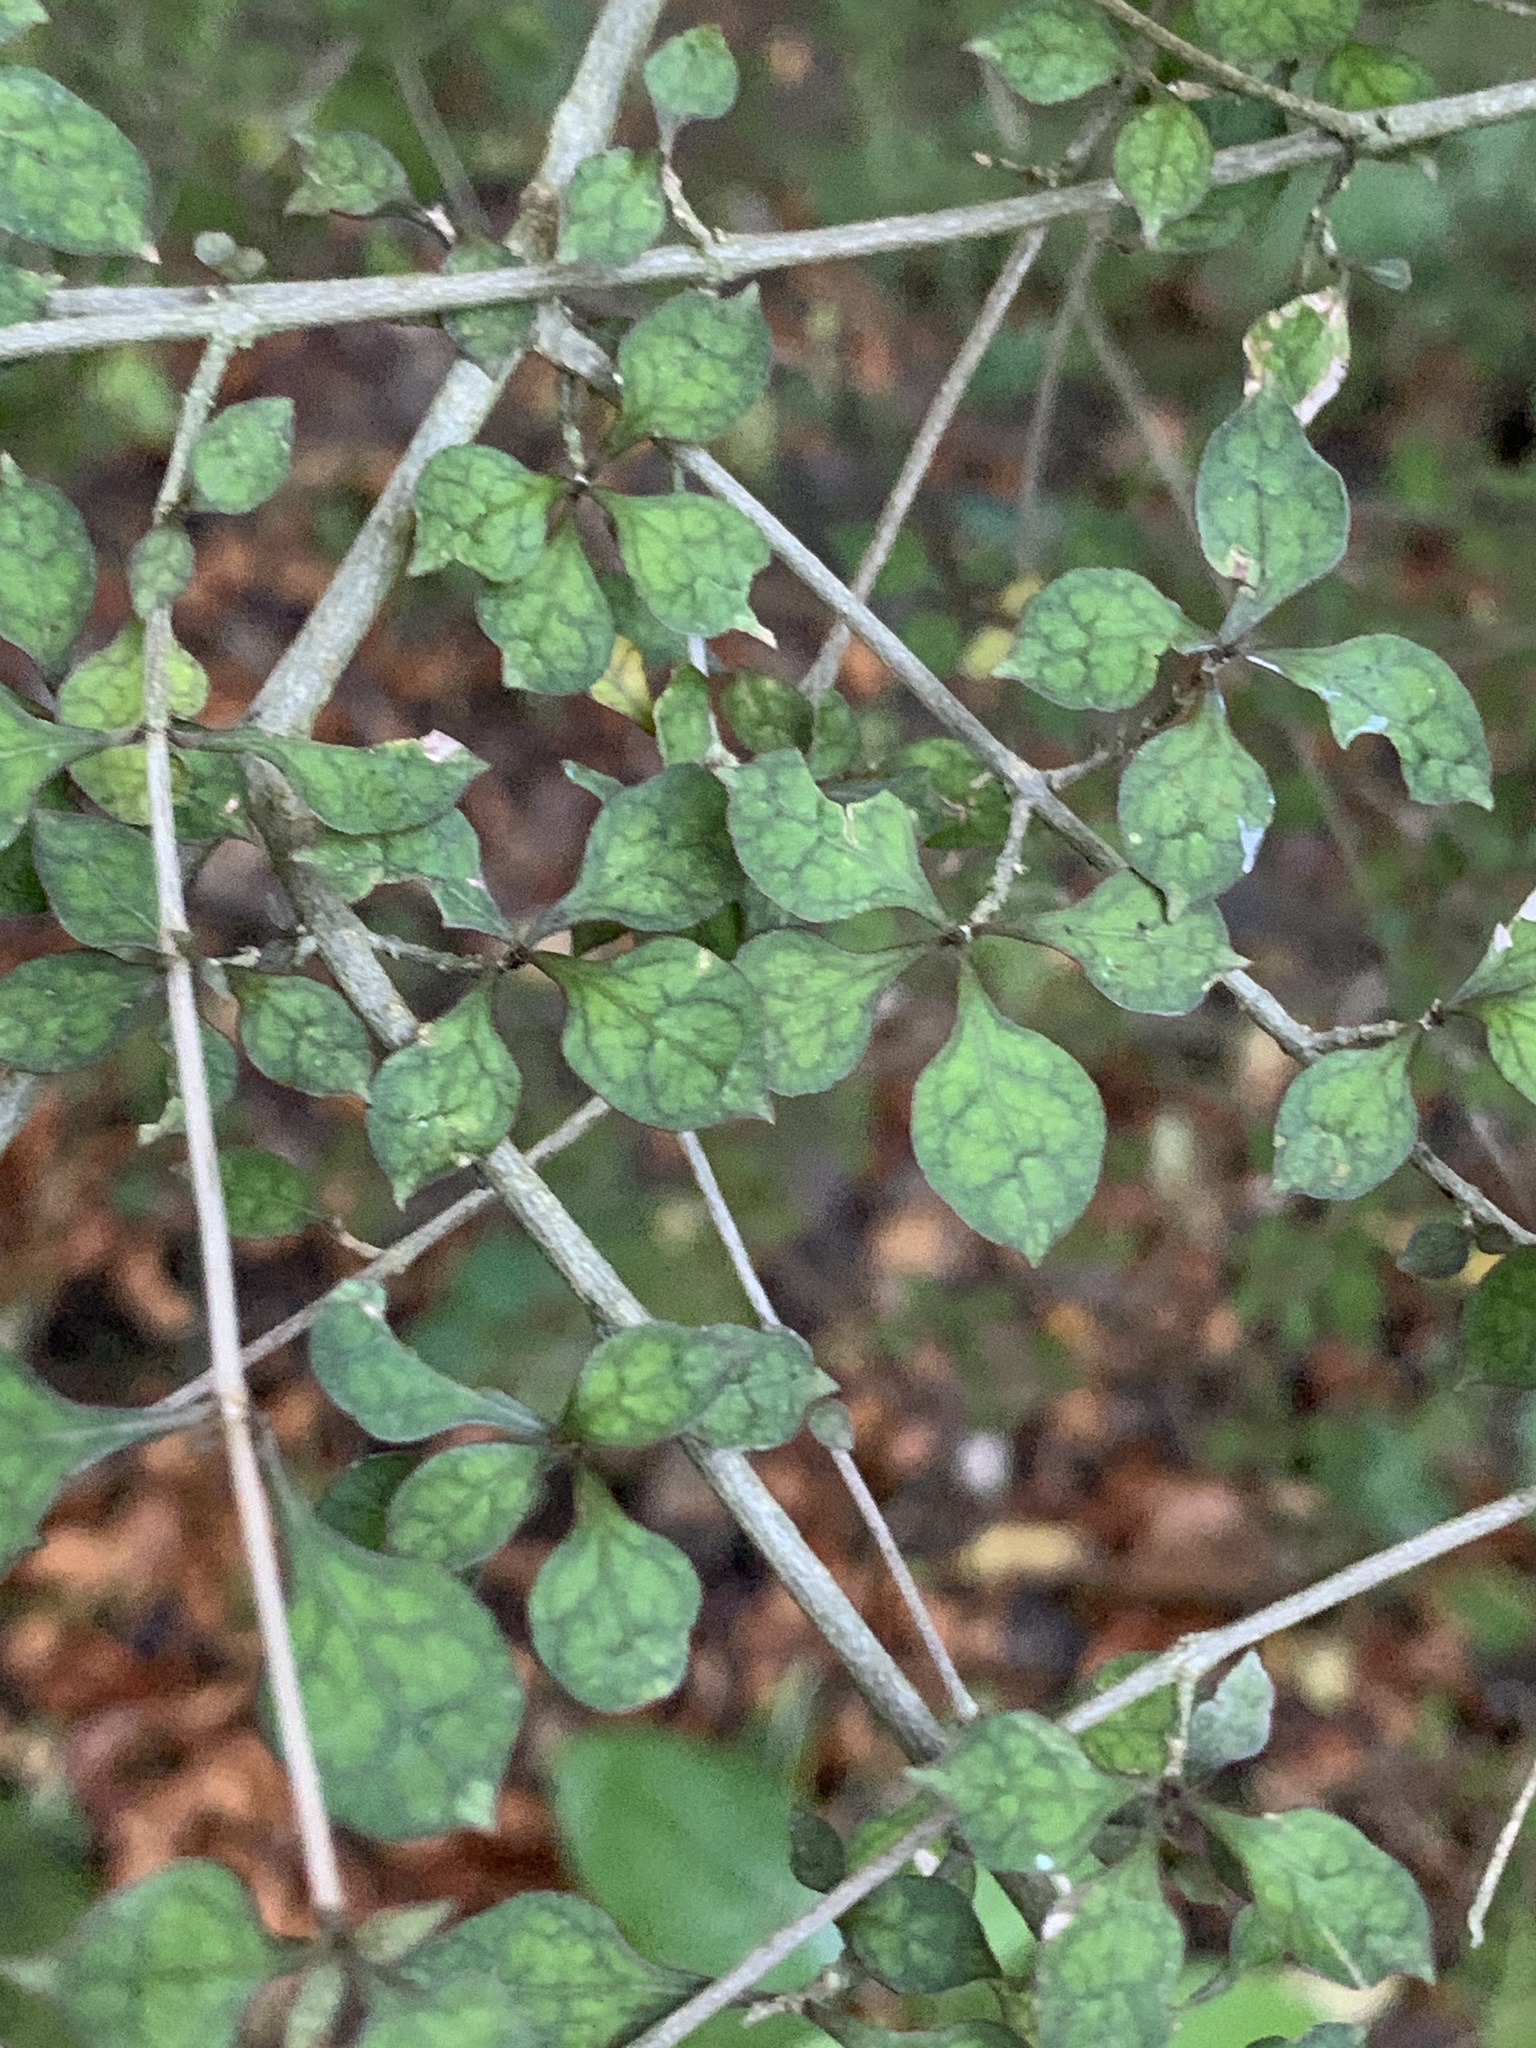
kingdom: Plantae
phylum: Tracheophyta
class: Magnoliopsida
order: Gentianales
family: Rubiaceae
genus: Coprosma
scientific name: Coprosma areolata
